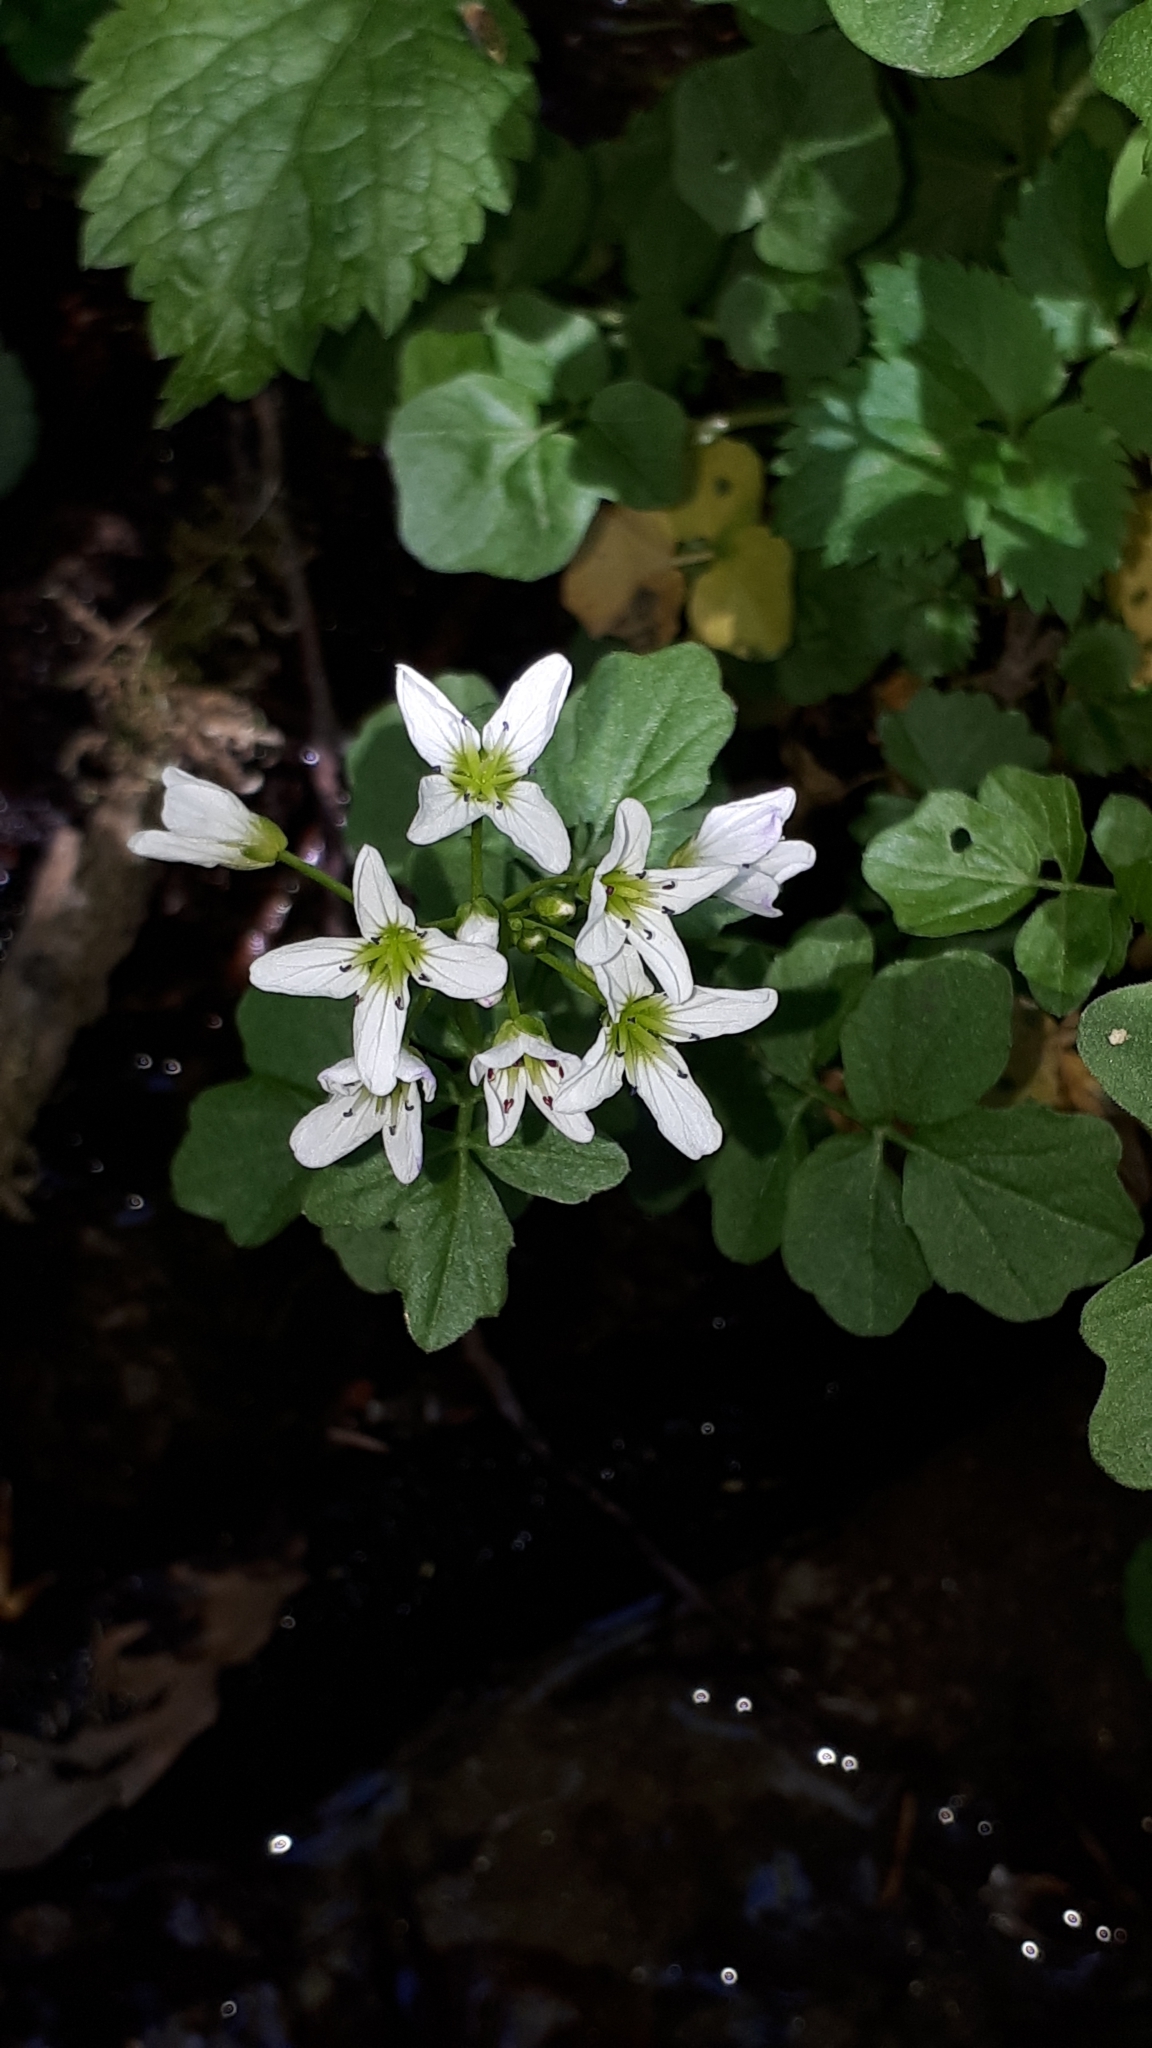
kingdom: Plantae
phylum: Tracheophyta
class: Magnoliopsida
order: Brassicales
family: Brassicaceae
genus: Cardamine
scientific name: Cardamine amara
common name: Large bitter-cress
